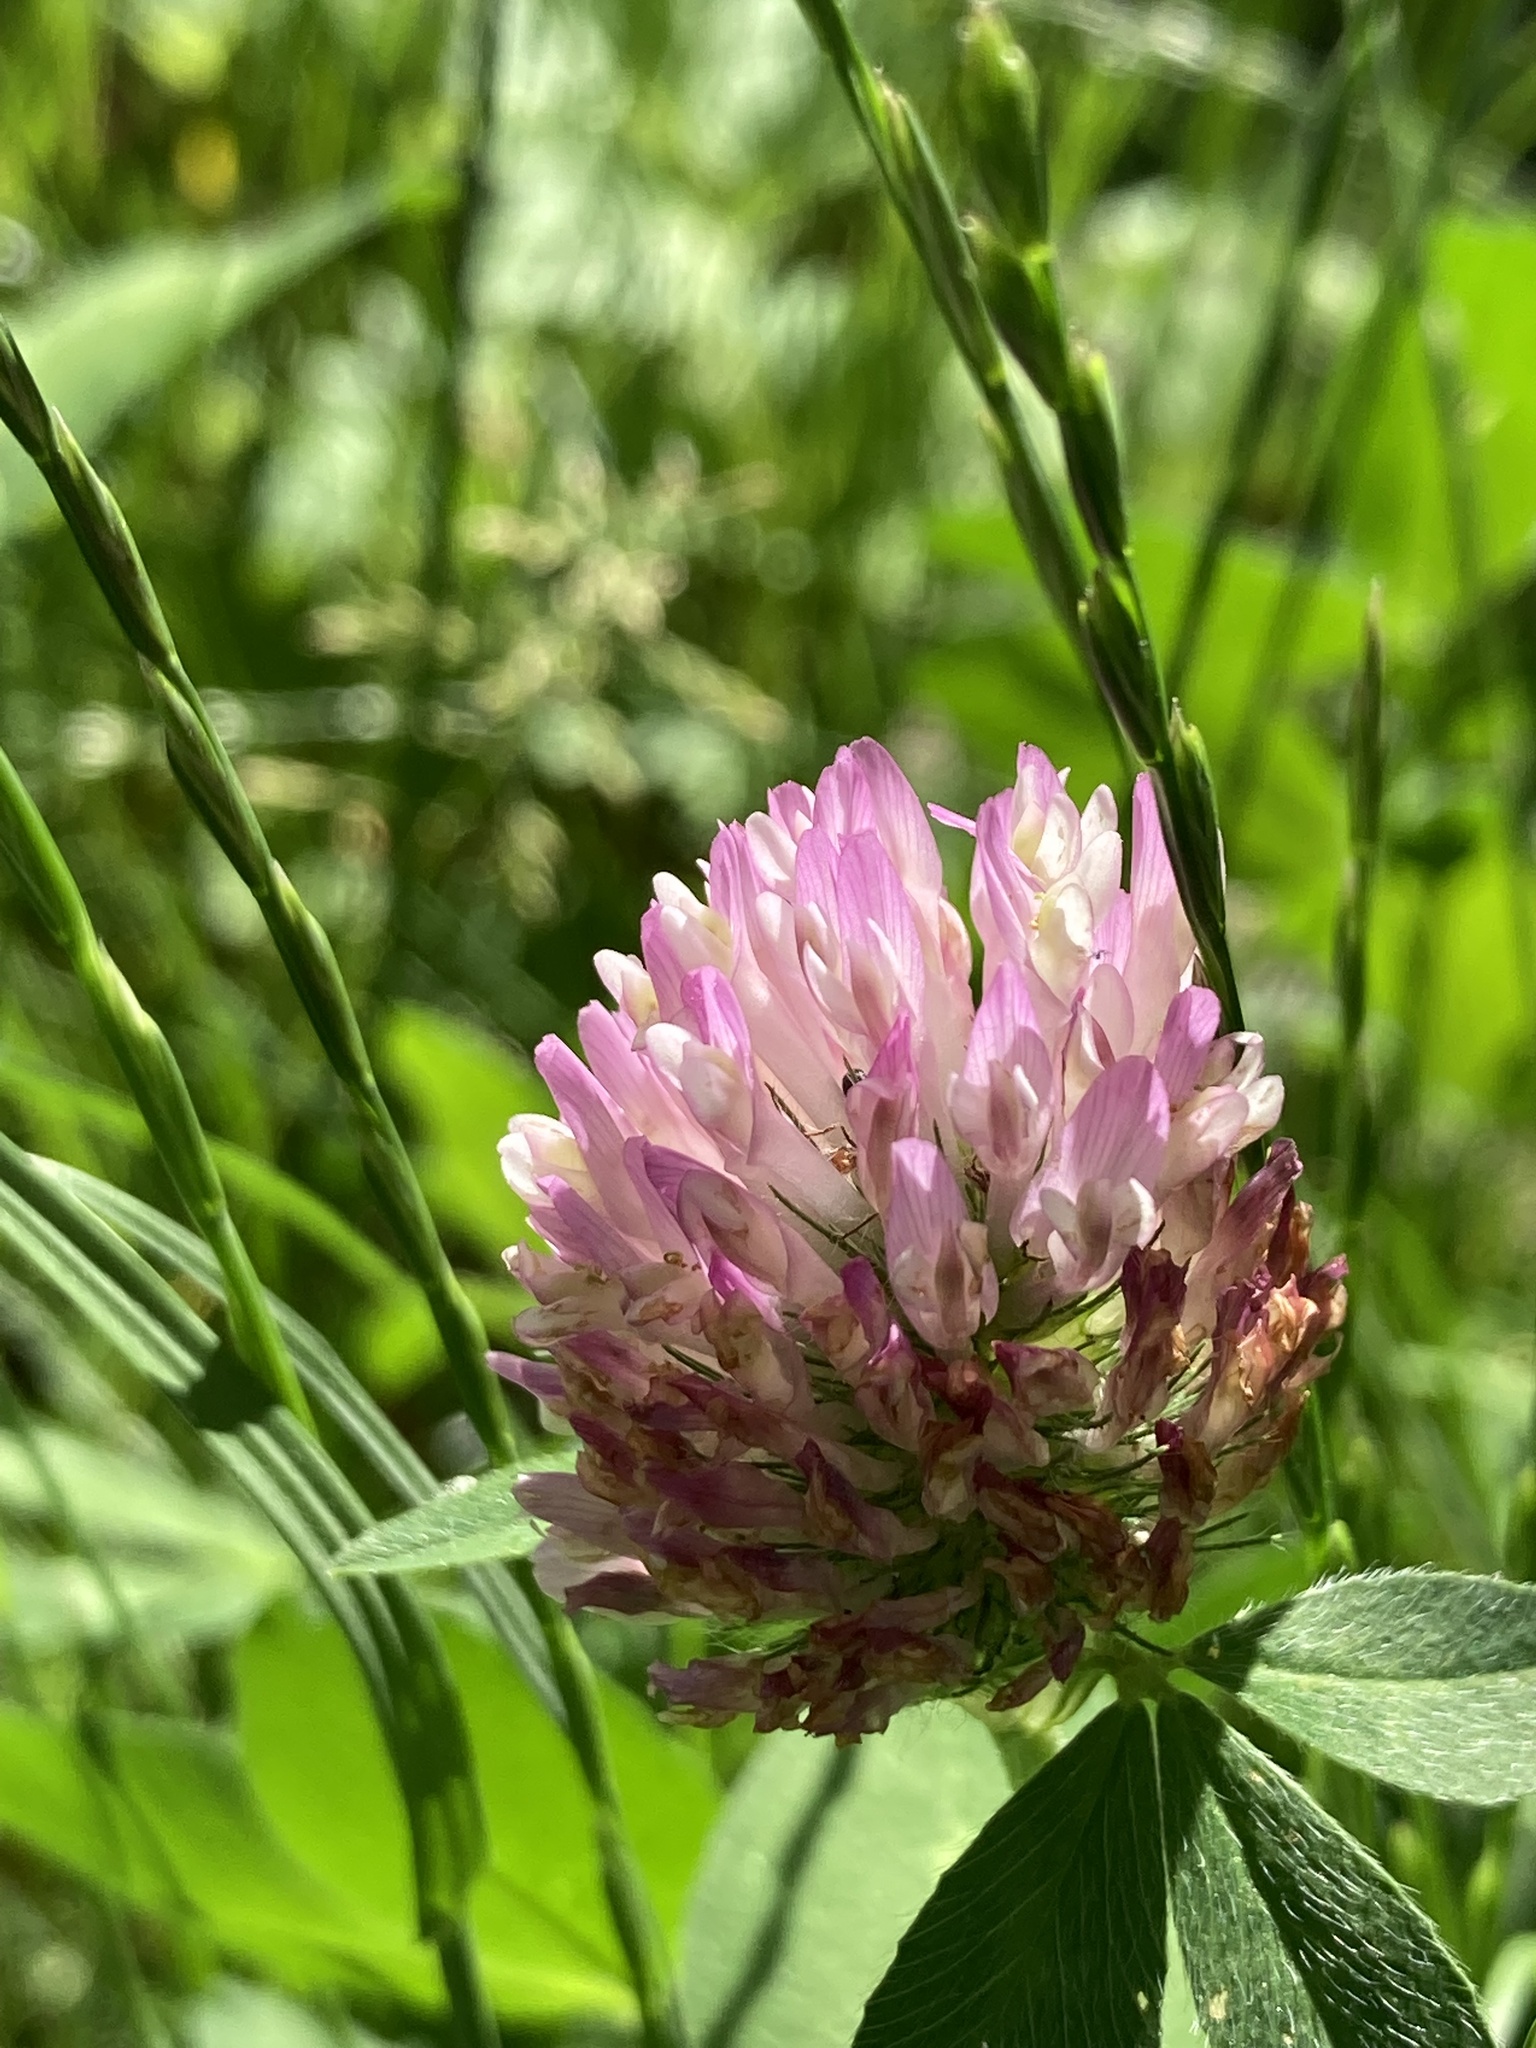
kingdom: Plantae
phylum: Tracheophyta
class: Magnoliopsida
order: Fabales
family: Fabaceae
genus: Trifolium
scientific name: Trifolium pratense
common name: Red clover
